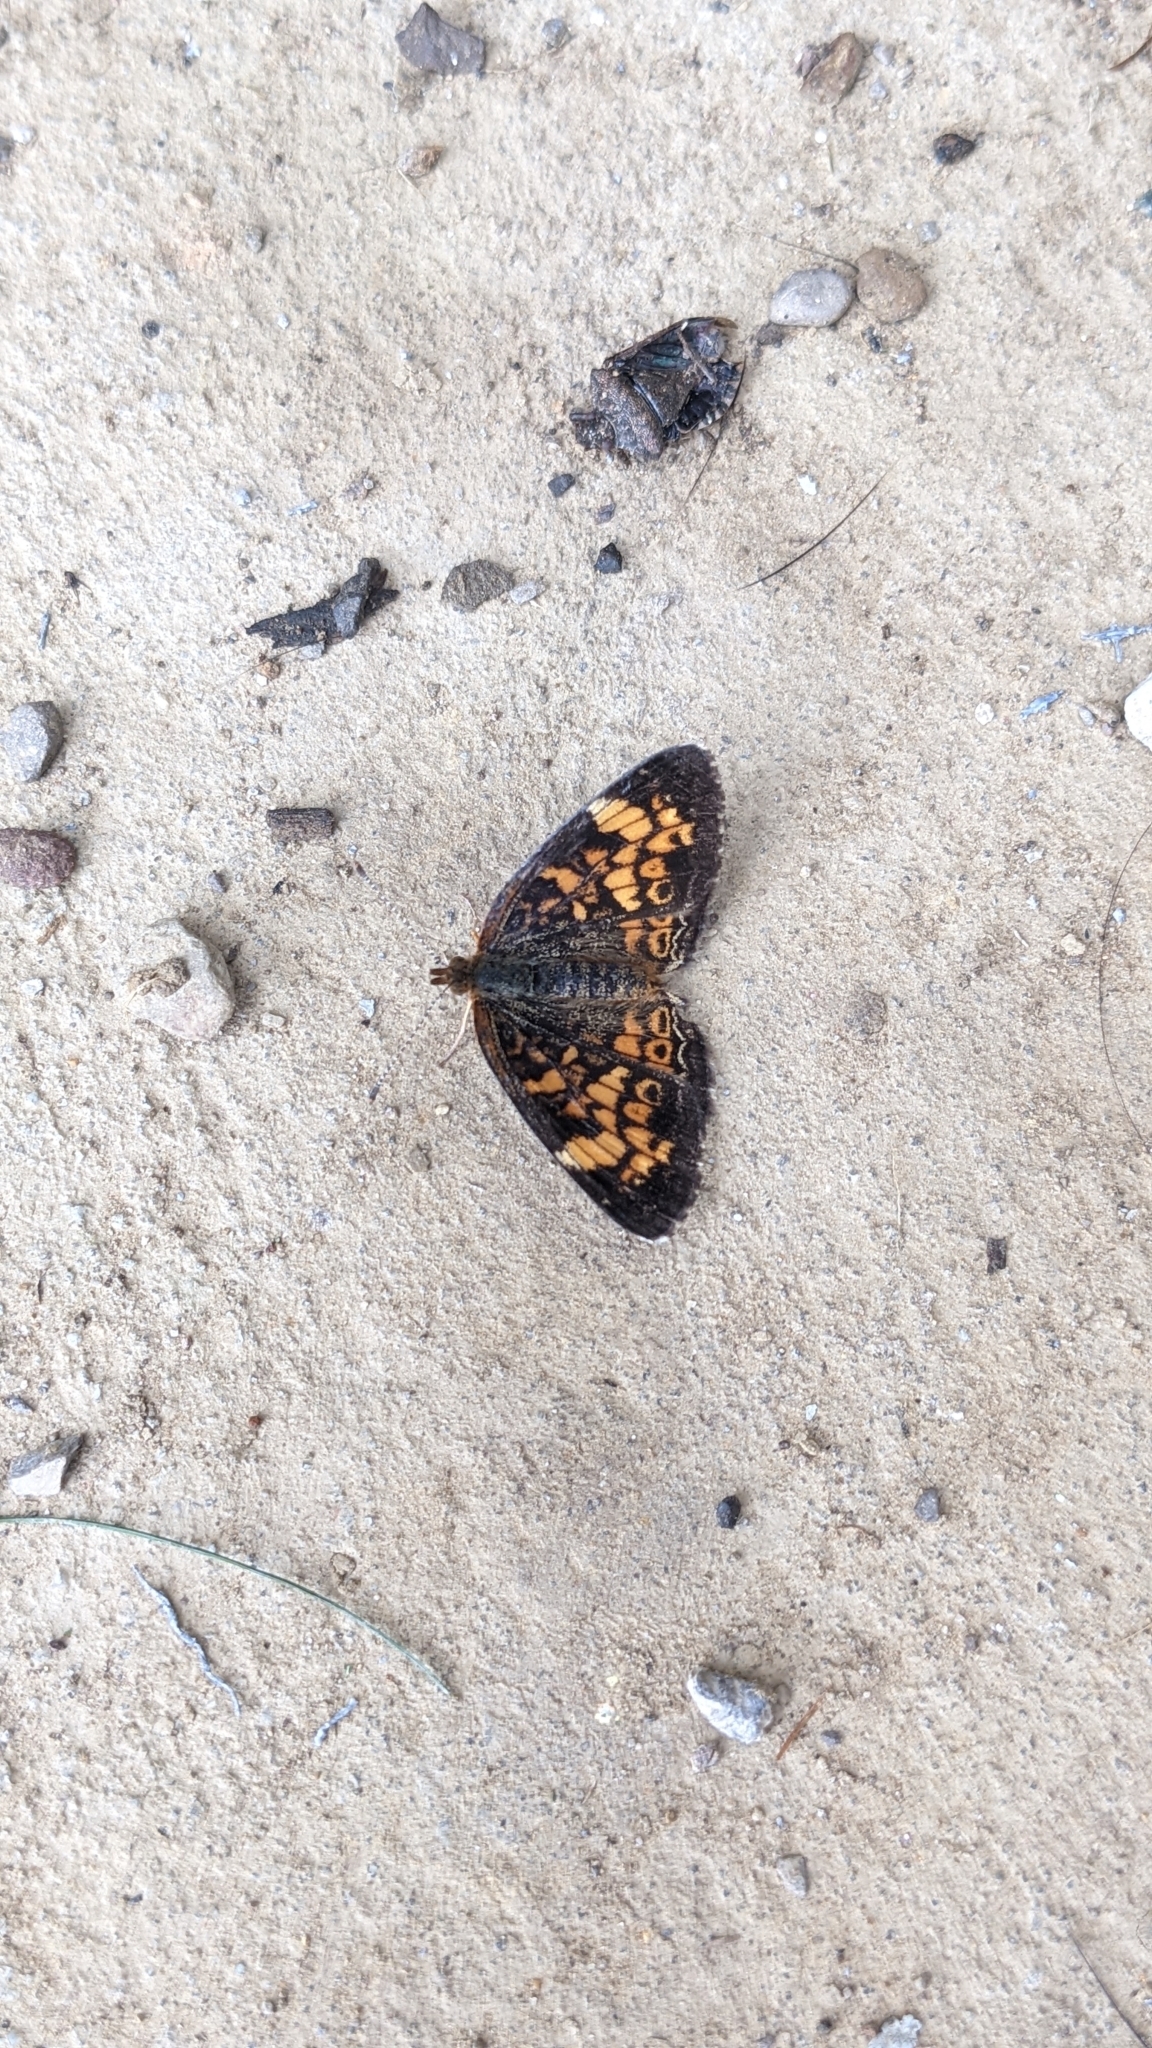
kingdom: Animalia
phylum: Arthropoda
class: Insecta
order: Lepidoptera
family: Nymphalidae
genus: Phyciodes
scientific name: Phyciodes tharos
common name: Pearl crescent
